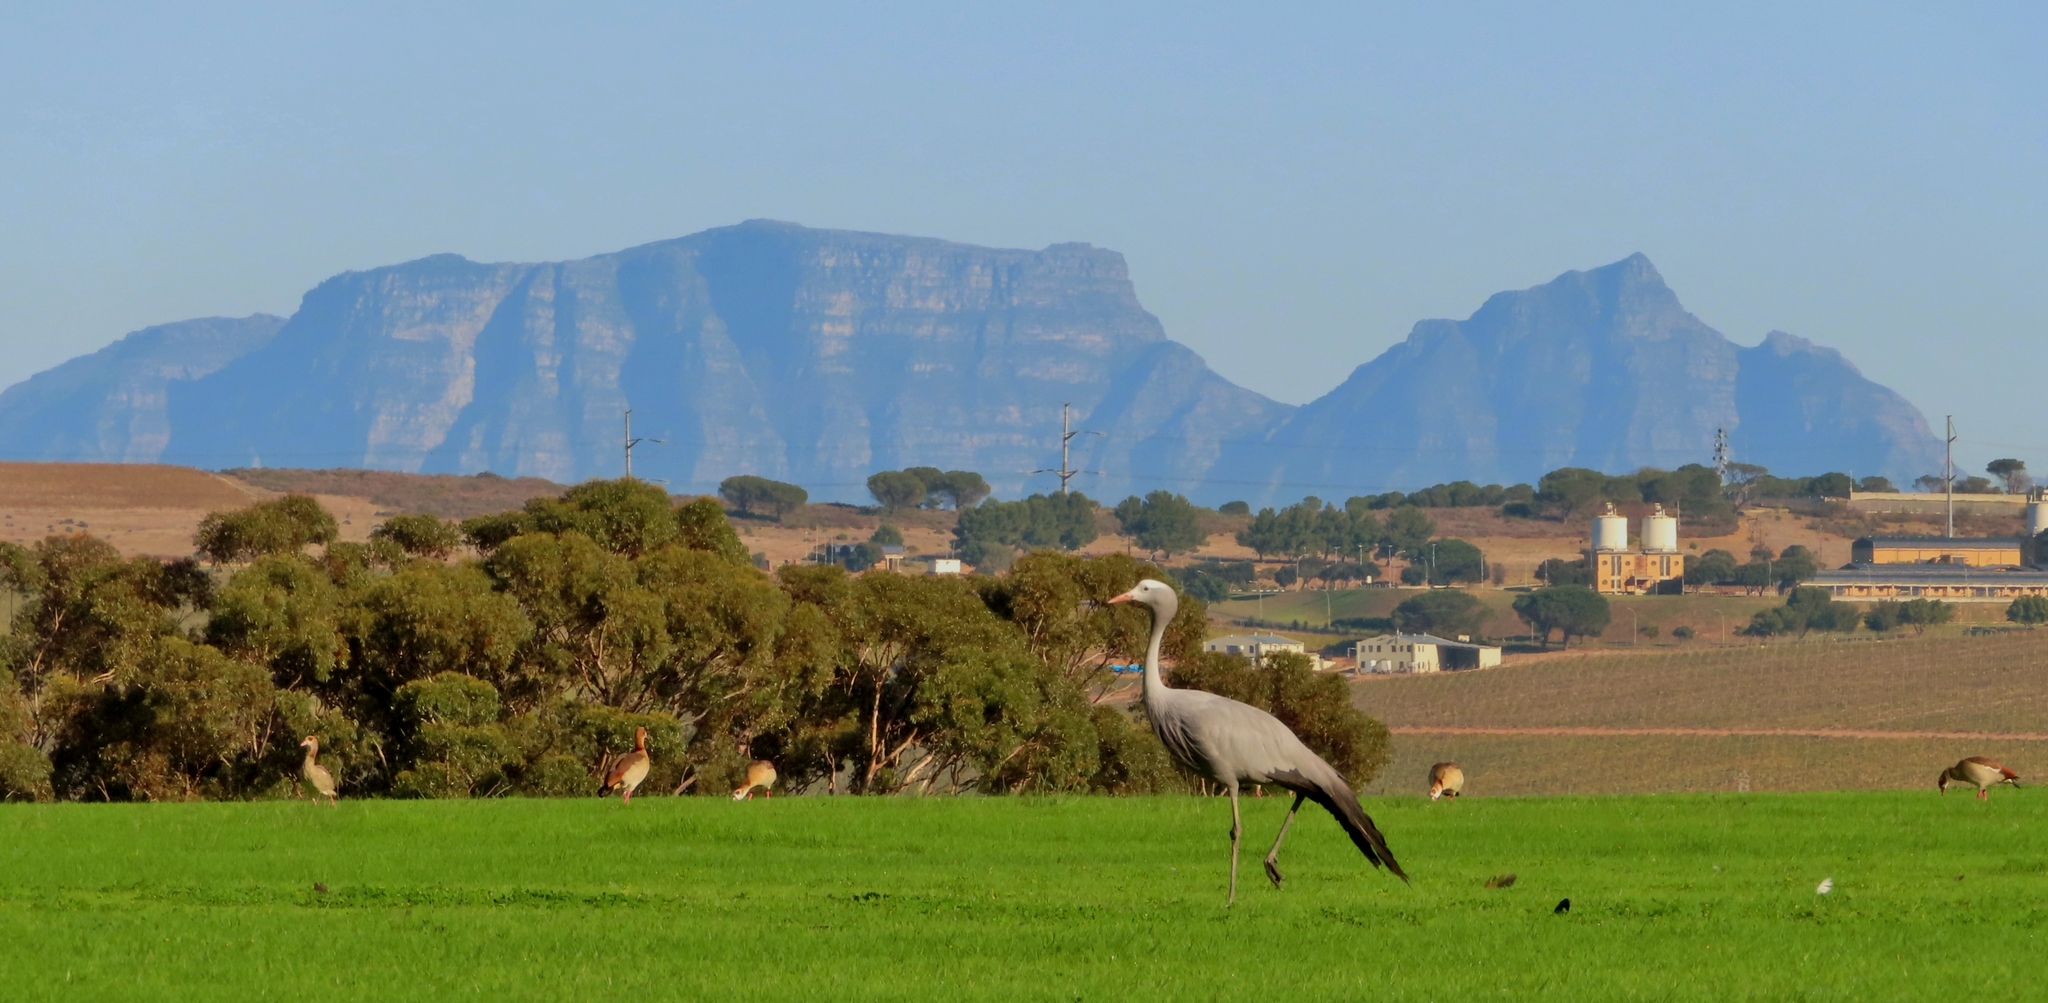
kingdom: Animalia
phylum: Chordata
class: Aves
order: Gruiformes
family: Gruidae
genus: Anthropoides
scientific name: Anthropoides paradiseus
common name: Blue crane
